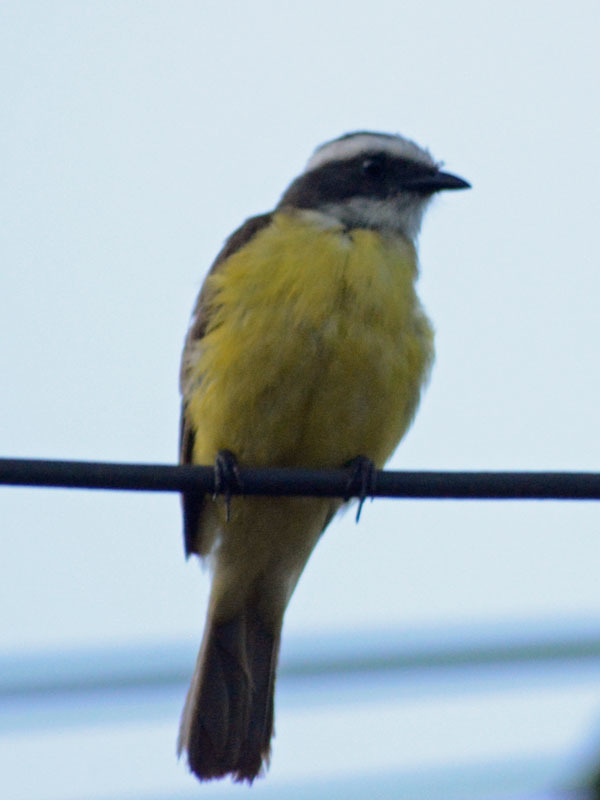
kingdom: Animalia
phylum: Chordata
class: Aves
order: Passeriformes
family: Tyrannidae
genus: Myiozetetes
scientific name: Myiozetetes similis
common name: Social flycatcher
